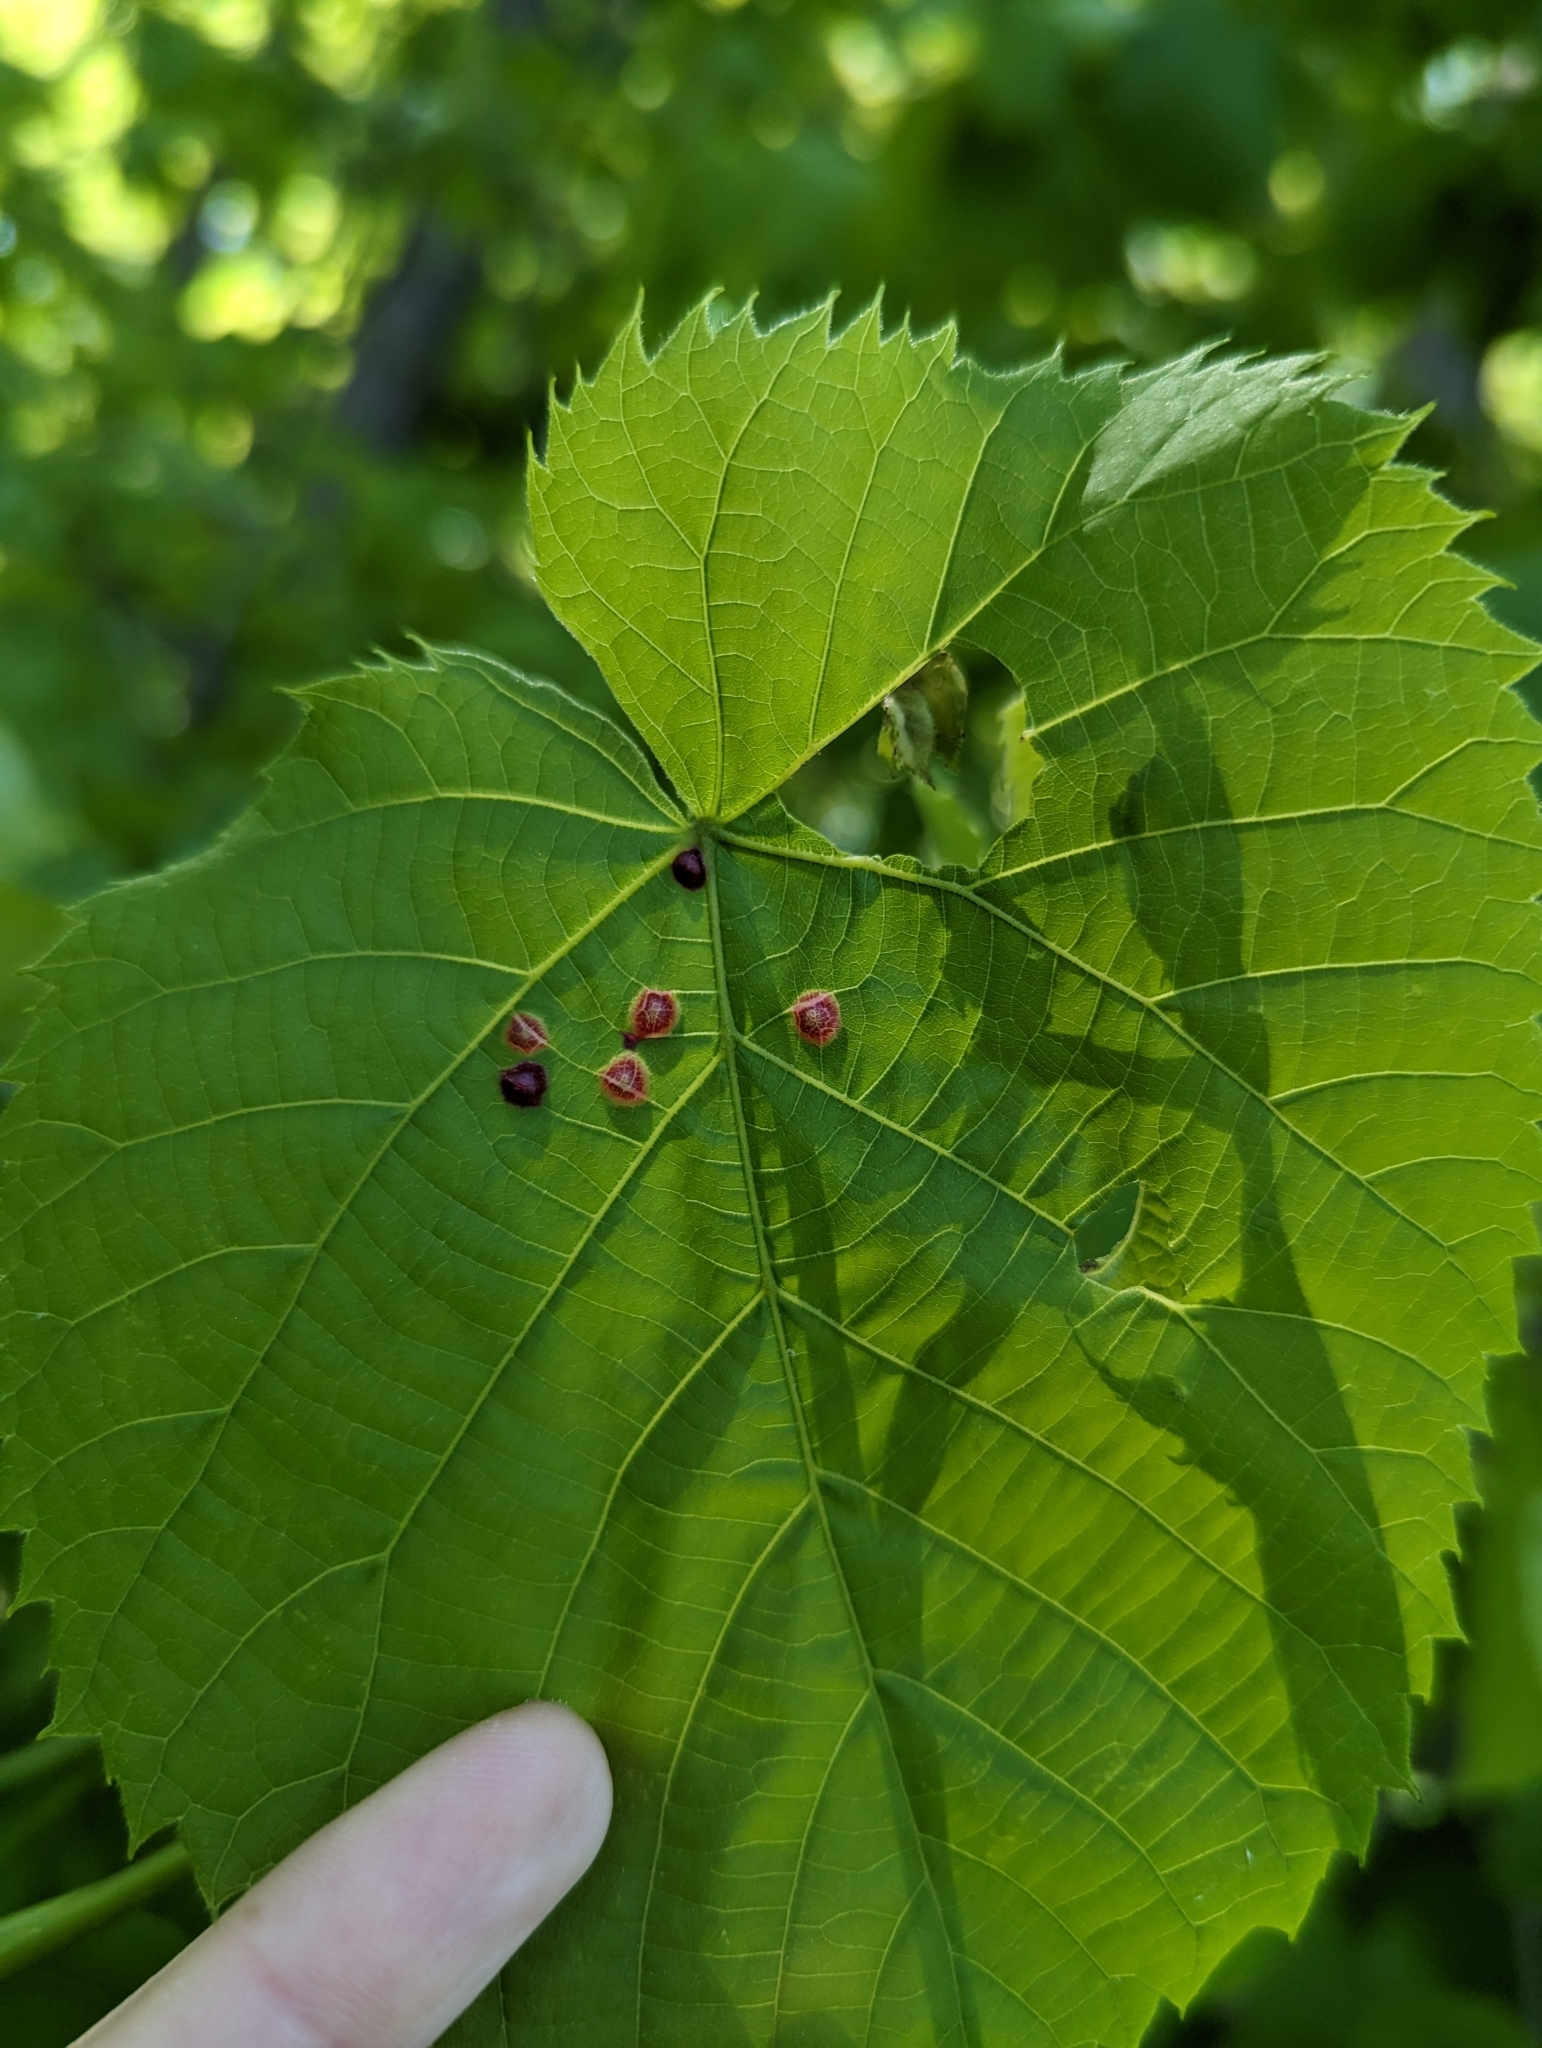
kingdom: Animalia
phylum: Arthropoda
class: Insecta
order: Diptera
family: Cecidomyiidae
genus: Contarinia
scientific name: Contarinia verrucicola
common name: Linden wart gall midge
